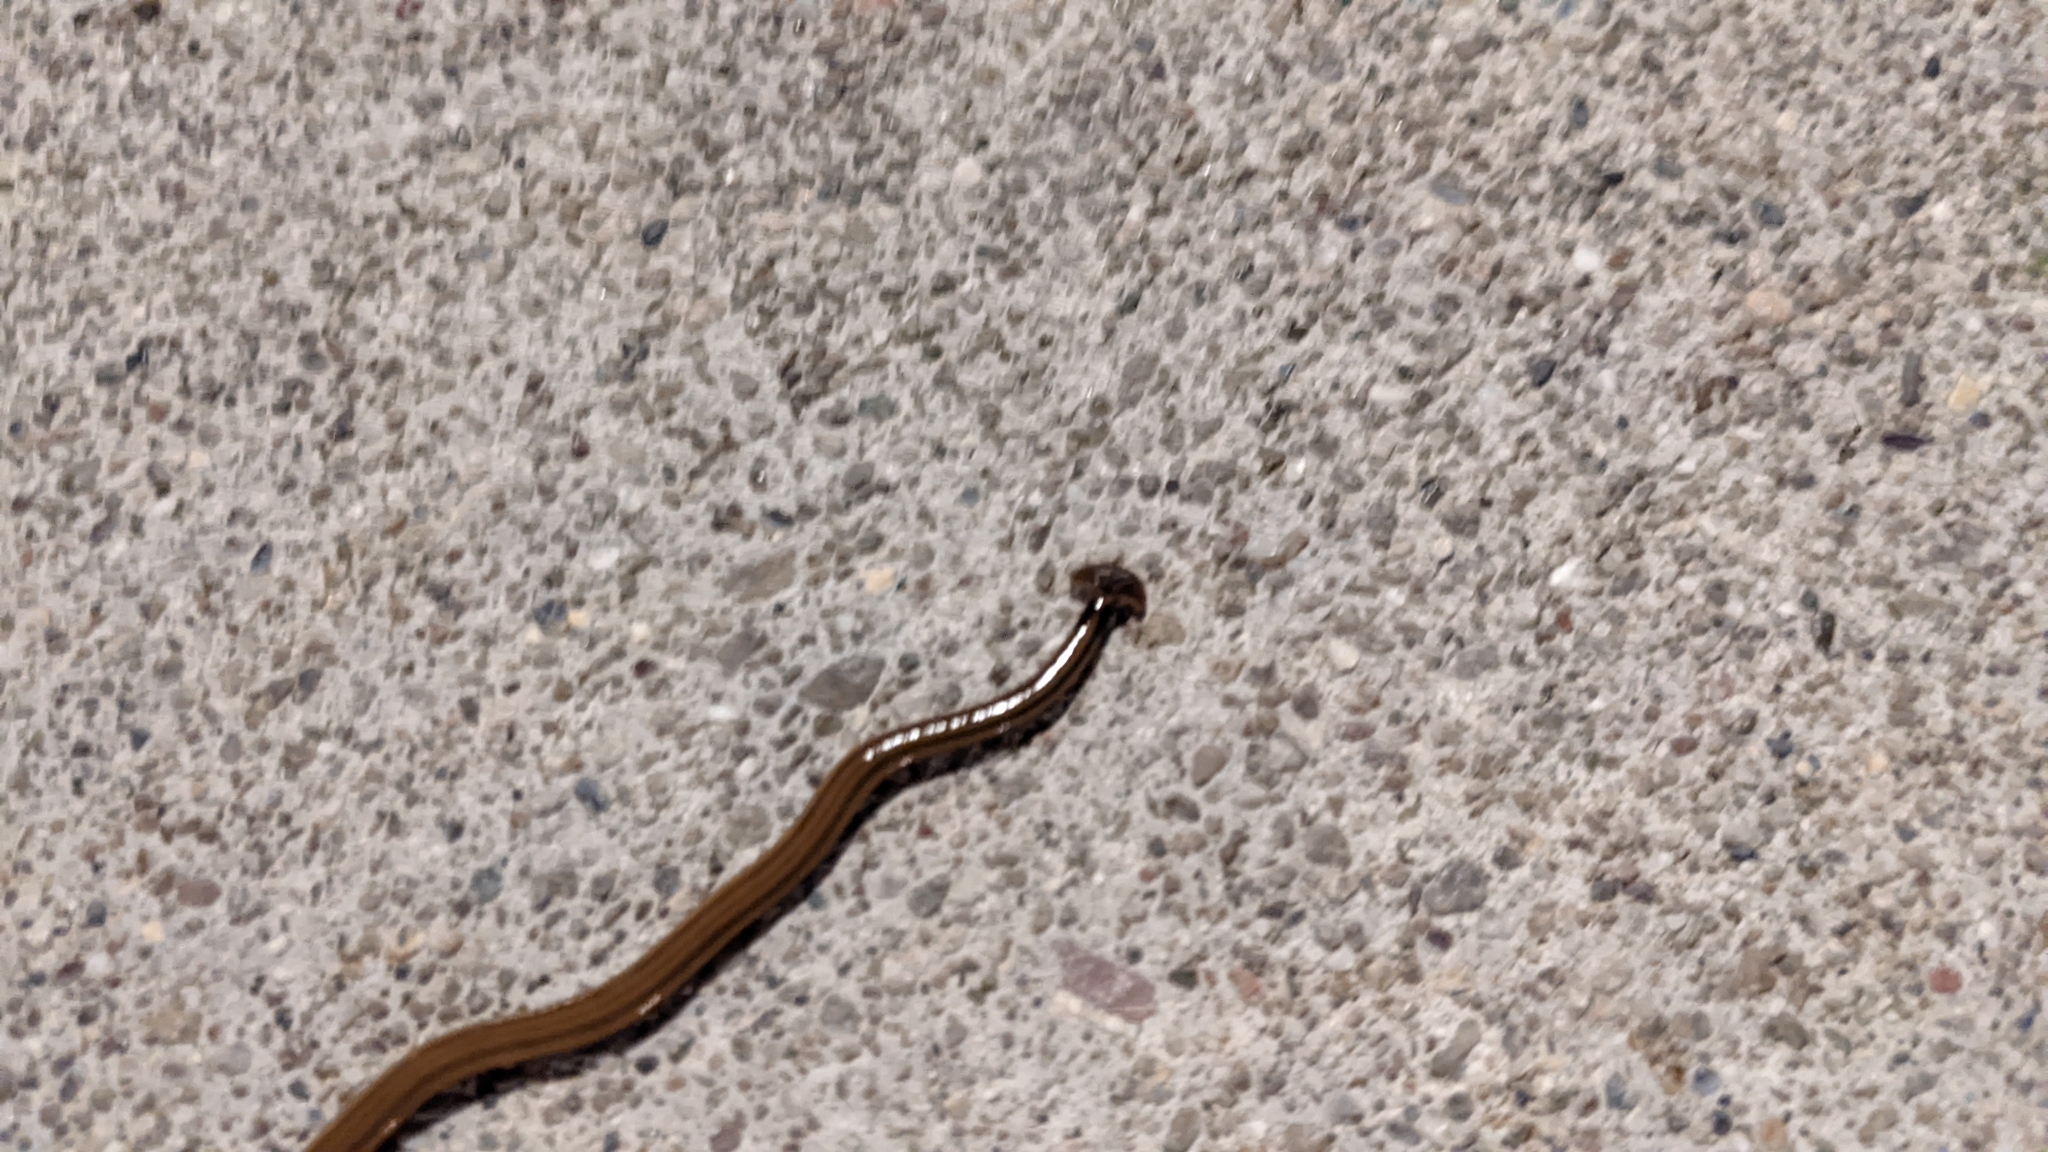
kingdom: Animalia
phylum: Platyhelminthes
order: Tricladida
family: Geoplanidae
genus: Bipalium
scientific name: Bipalium kewense
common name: Hammerhead flatworm
